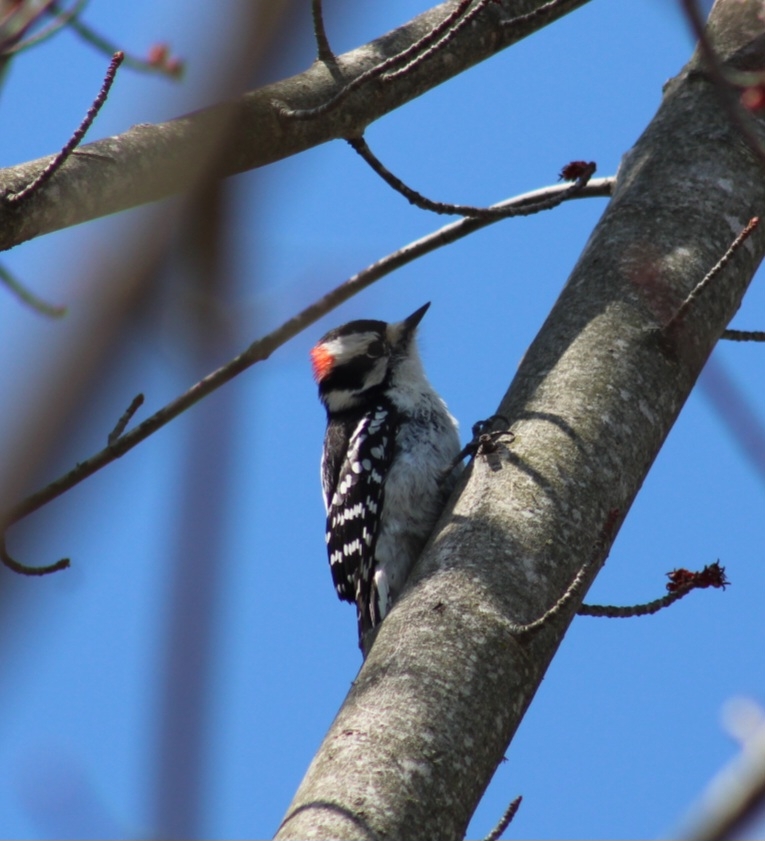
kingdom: Animalia
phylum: Chordata
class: Aves
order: Piciformes
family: Picidae
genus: Dryobates
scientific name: Dryobates pubescens
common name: Downy woodpecker
